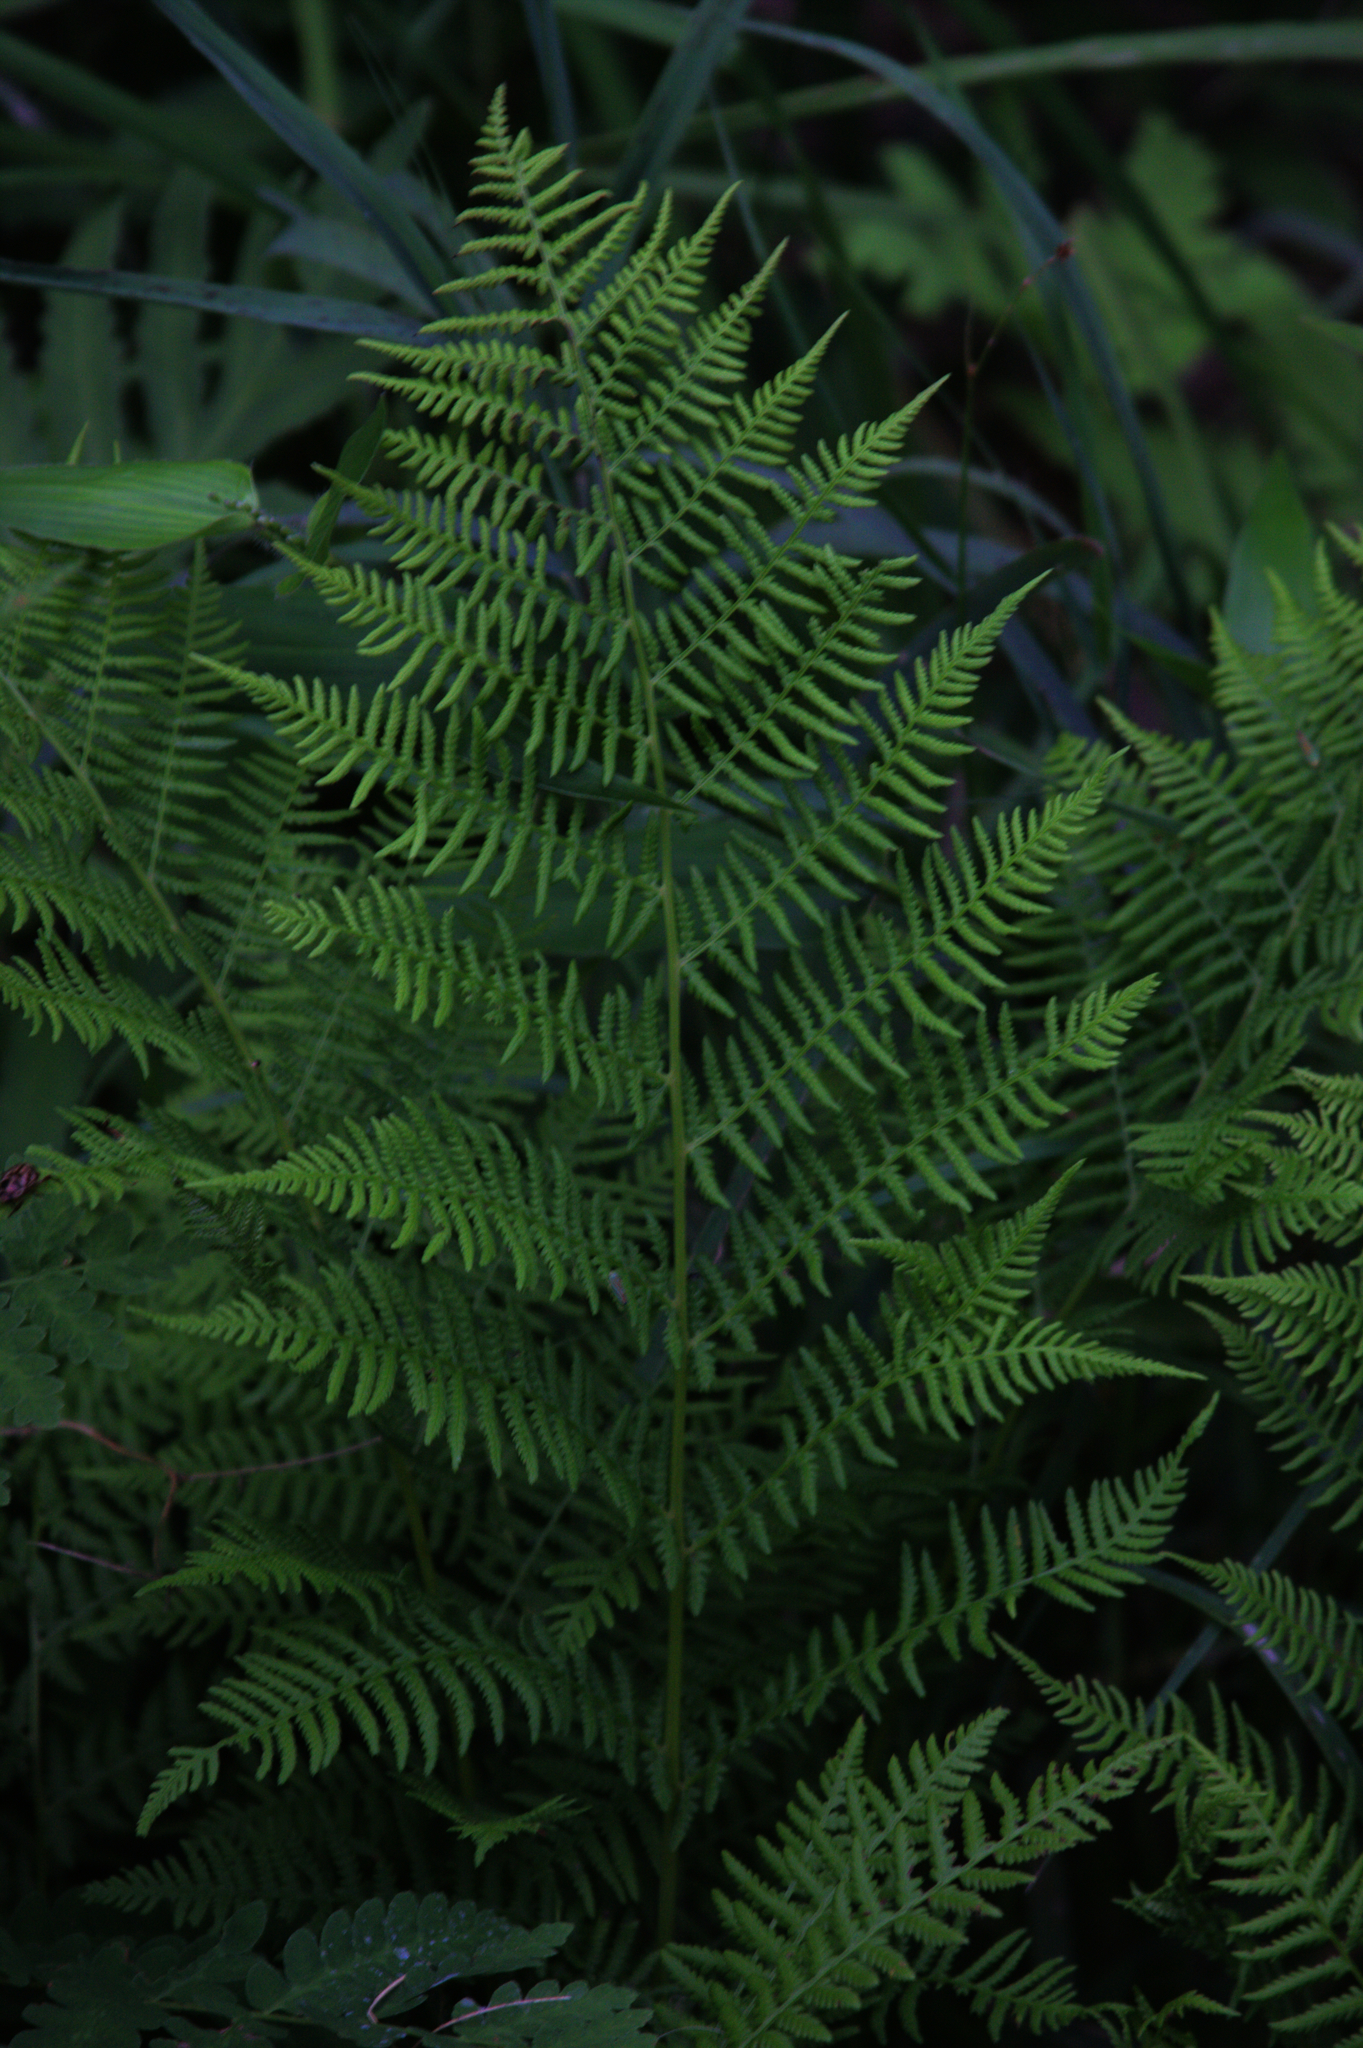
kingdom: Plantae
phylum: Tracheophyta
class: Polypodiopsida
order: Polypodiales
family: Athyriaceae
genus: Athyrium
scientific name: Athyrium angustum
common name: Northern lady fern
